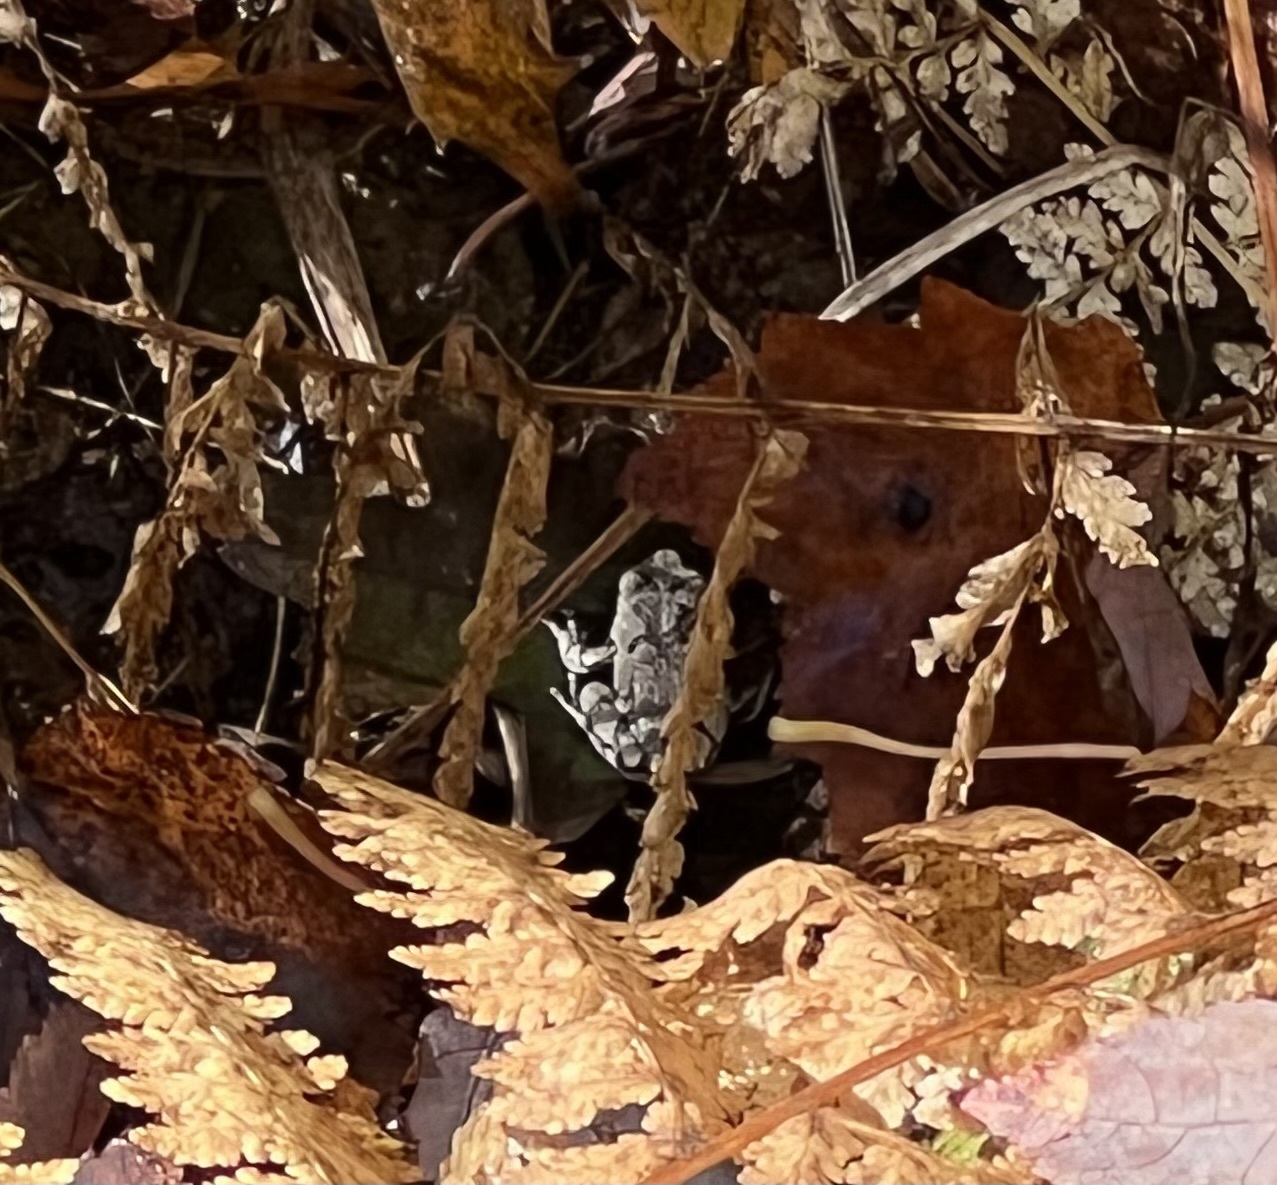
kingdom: Animalia
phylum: Chordata
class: Amphibia
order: Anura
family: Hylidae
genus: Dryophytes
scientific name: Dryophytes versicolor
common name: Gray treefrog
